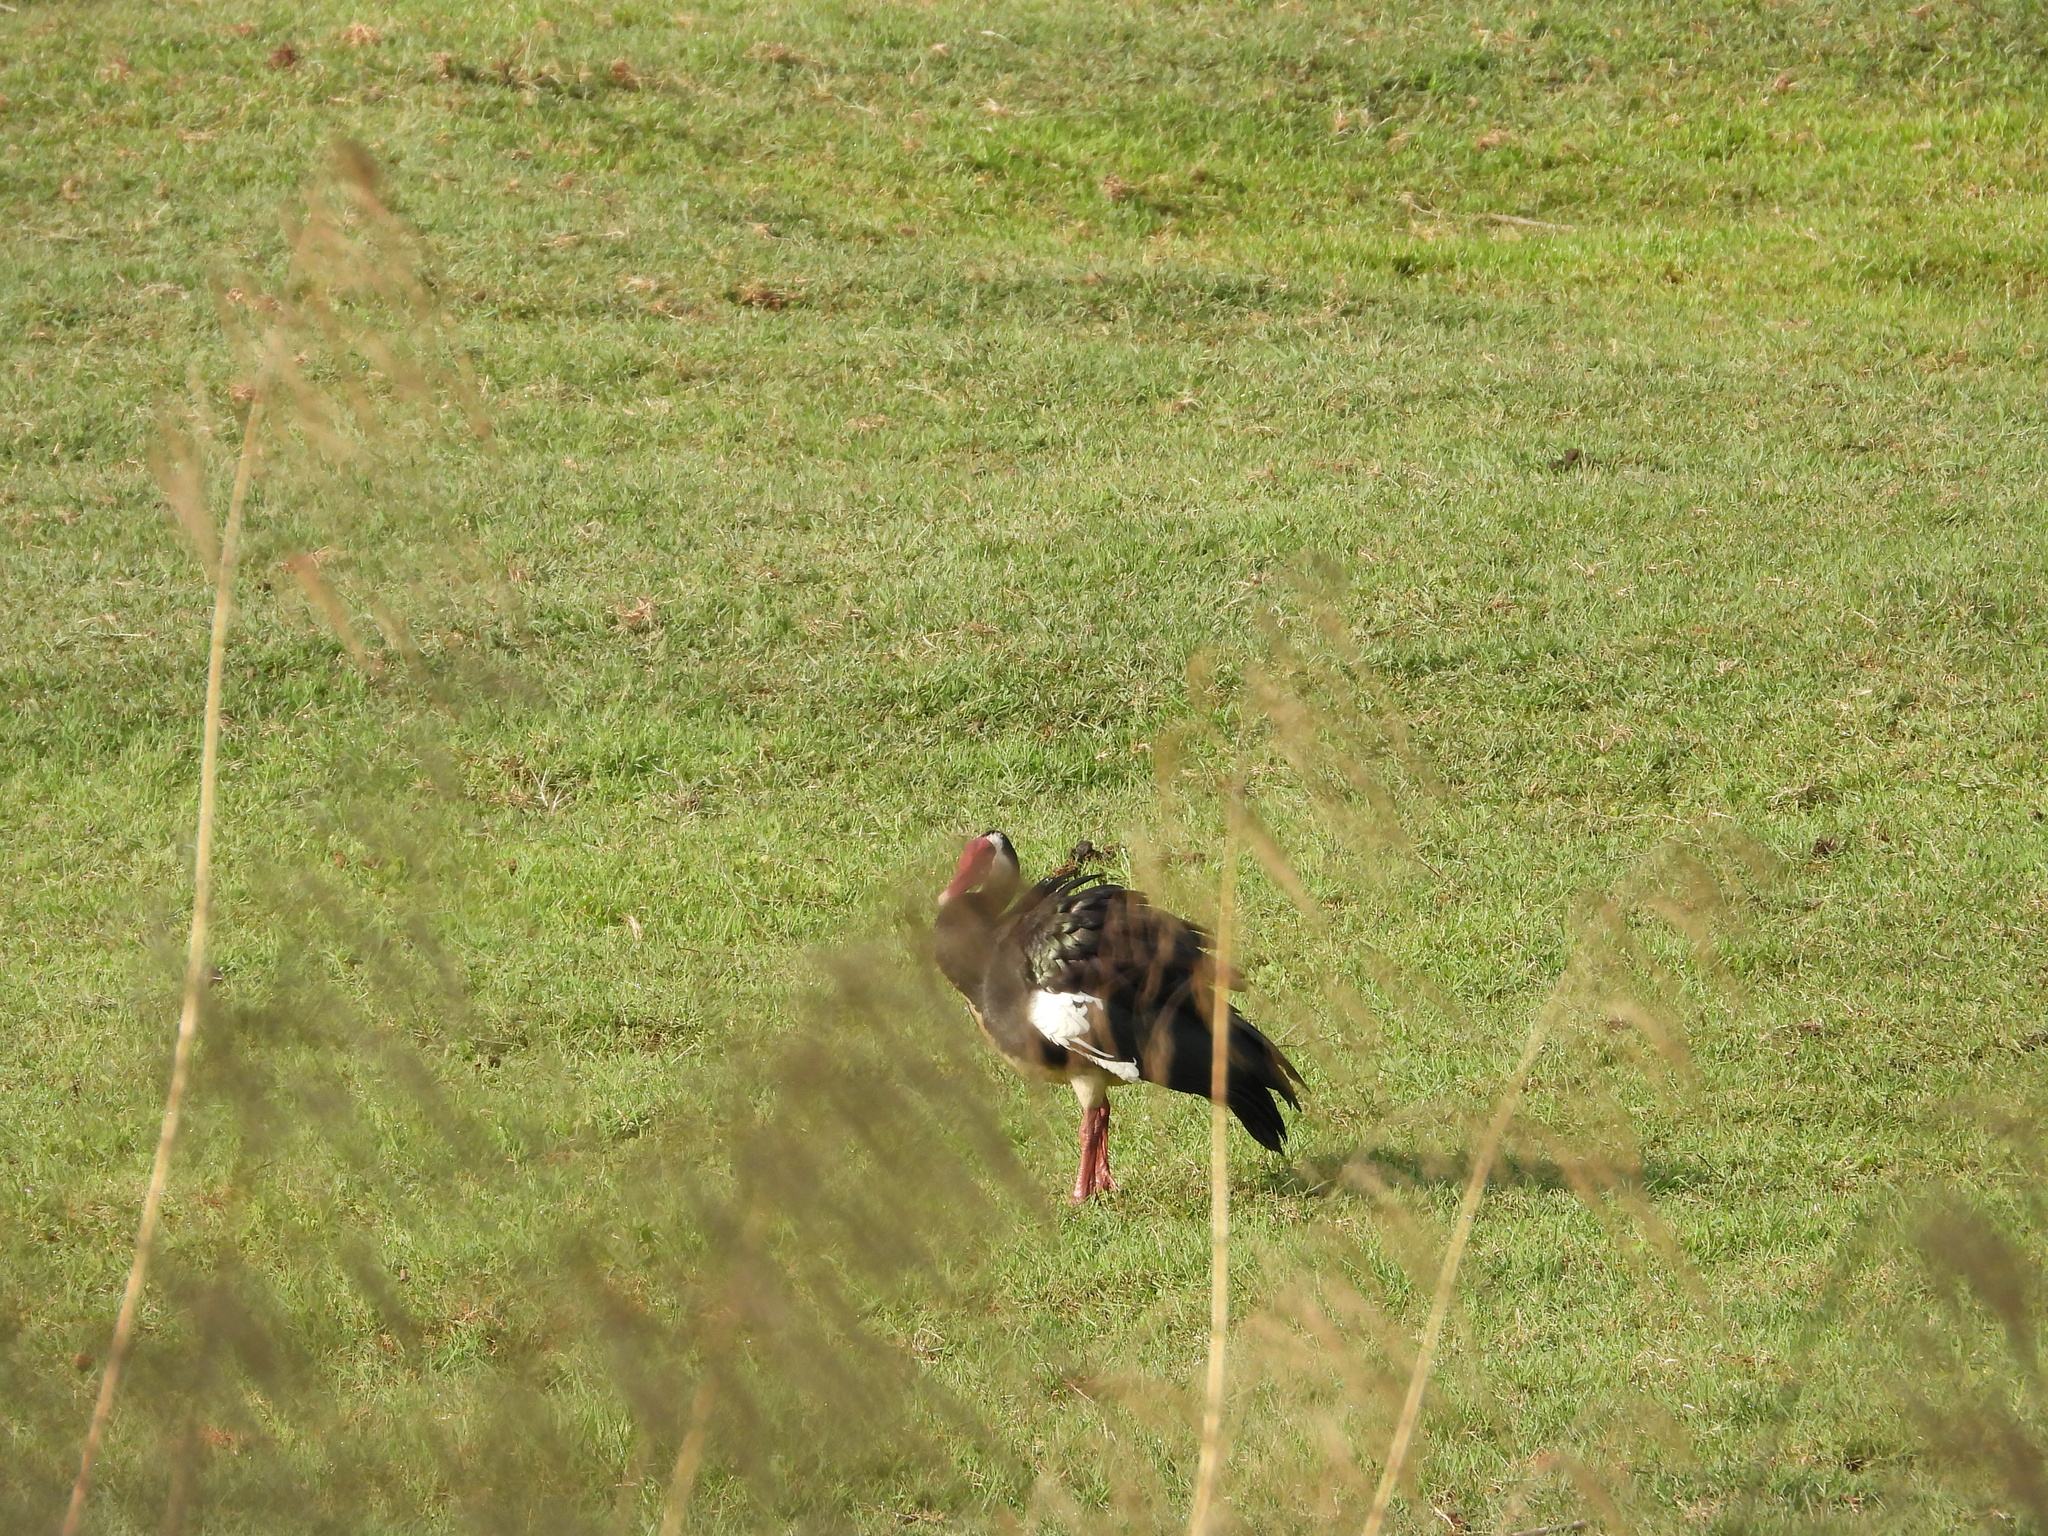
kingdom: Animalia
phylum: Chordata
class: Aves
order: Anseriformes
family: Anatidae
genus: Plectropterus
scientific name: Plectropterus gambensis
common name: Spur-winged goose
